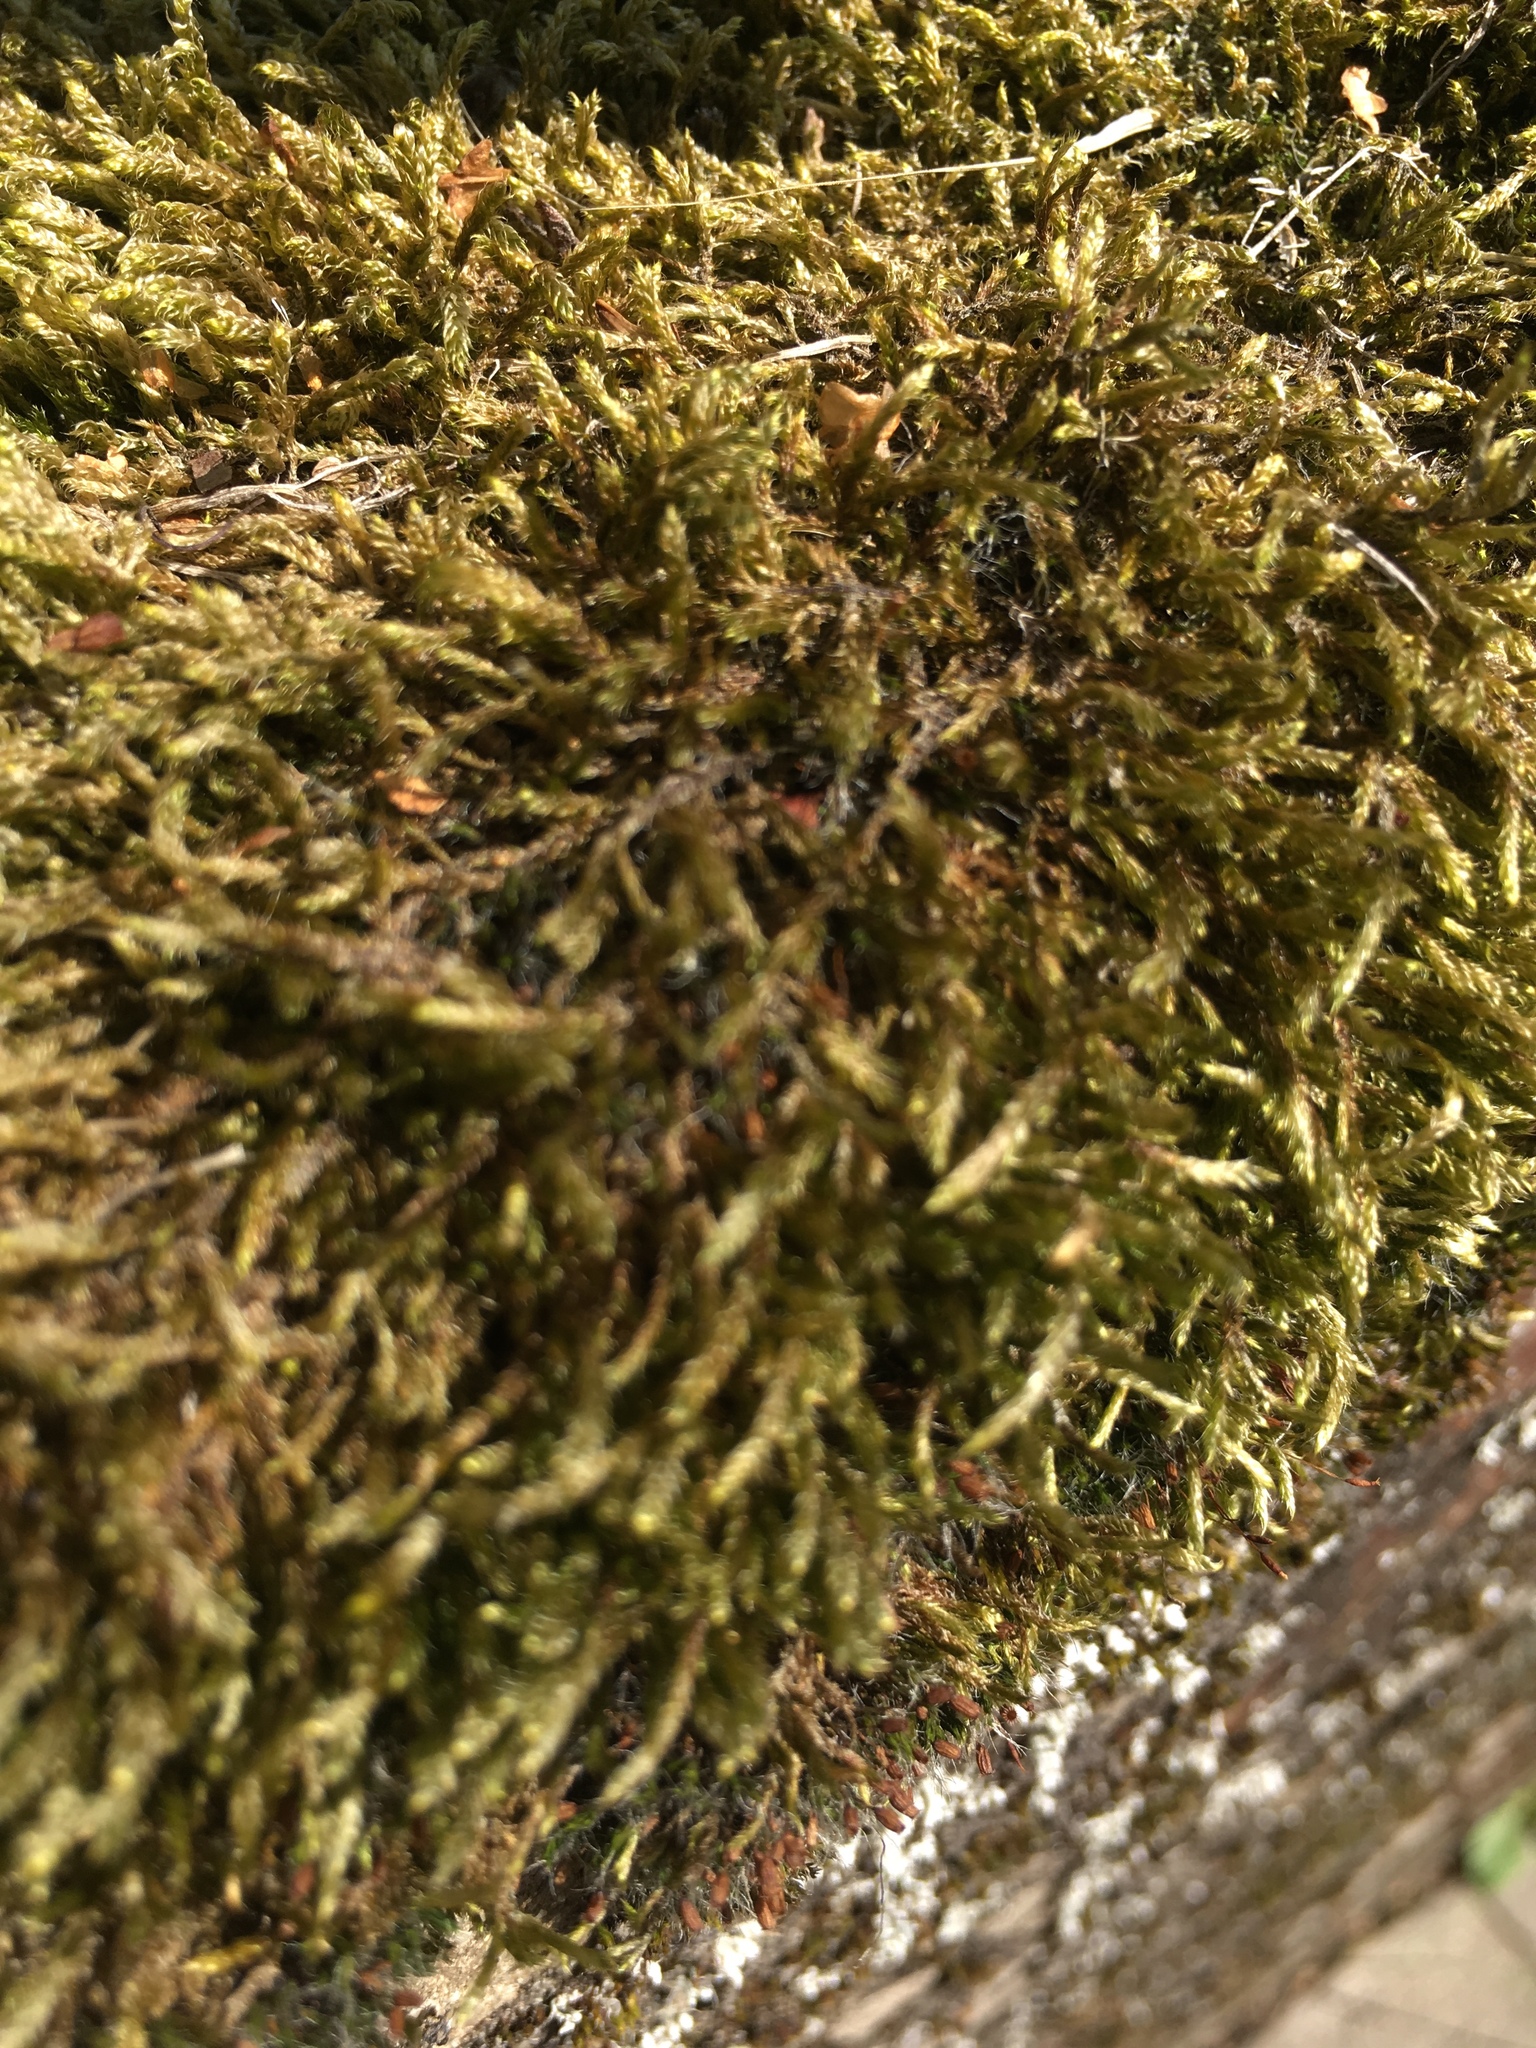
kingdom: Plantae
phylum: Bryophyta
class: Bryopsida
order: Hypnales
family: Hypnaceae
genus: Hypnum
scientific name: Hypnum cupressiforme
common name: Cypress-leaved plait-moss
